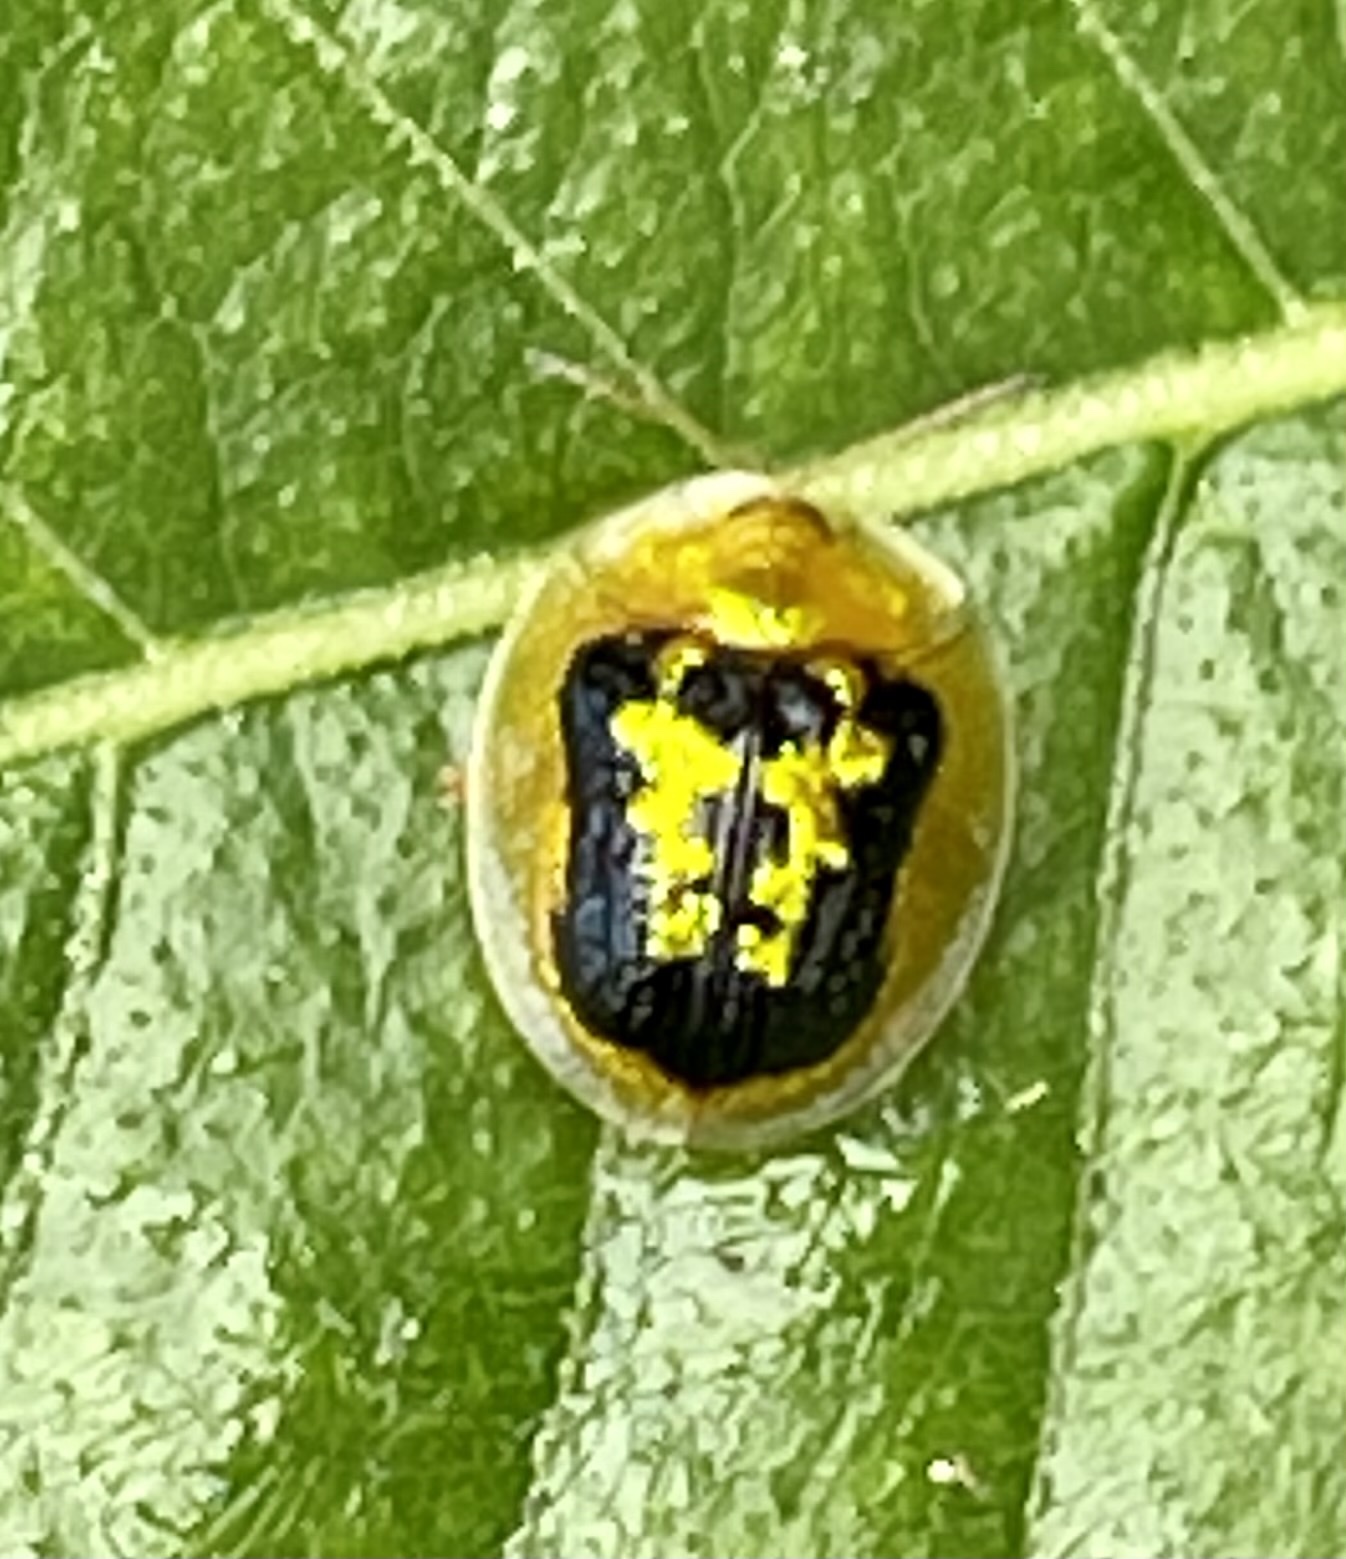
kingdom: Animalia
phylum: Arthropoda
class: Insecta
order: Coleoptera
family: Chrysomelidae
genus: Cassida
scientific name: Cassida diomma
